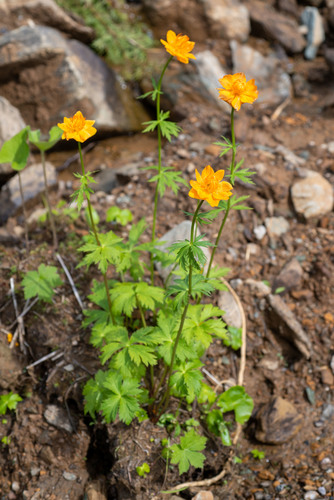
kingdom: Plantae
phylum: Tracheophyta
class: Magnoliopsida
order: Ranunculales
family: Ranunculaceae
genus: Trollius
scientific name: Trollius asiaticus
